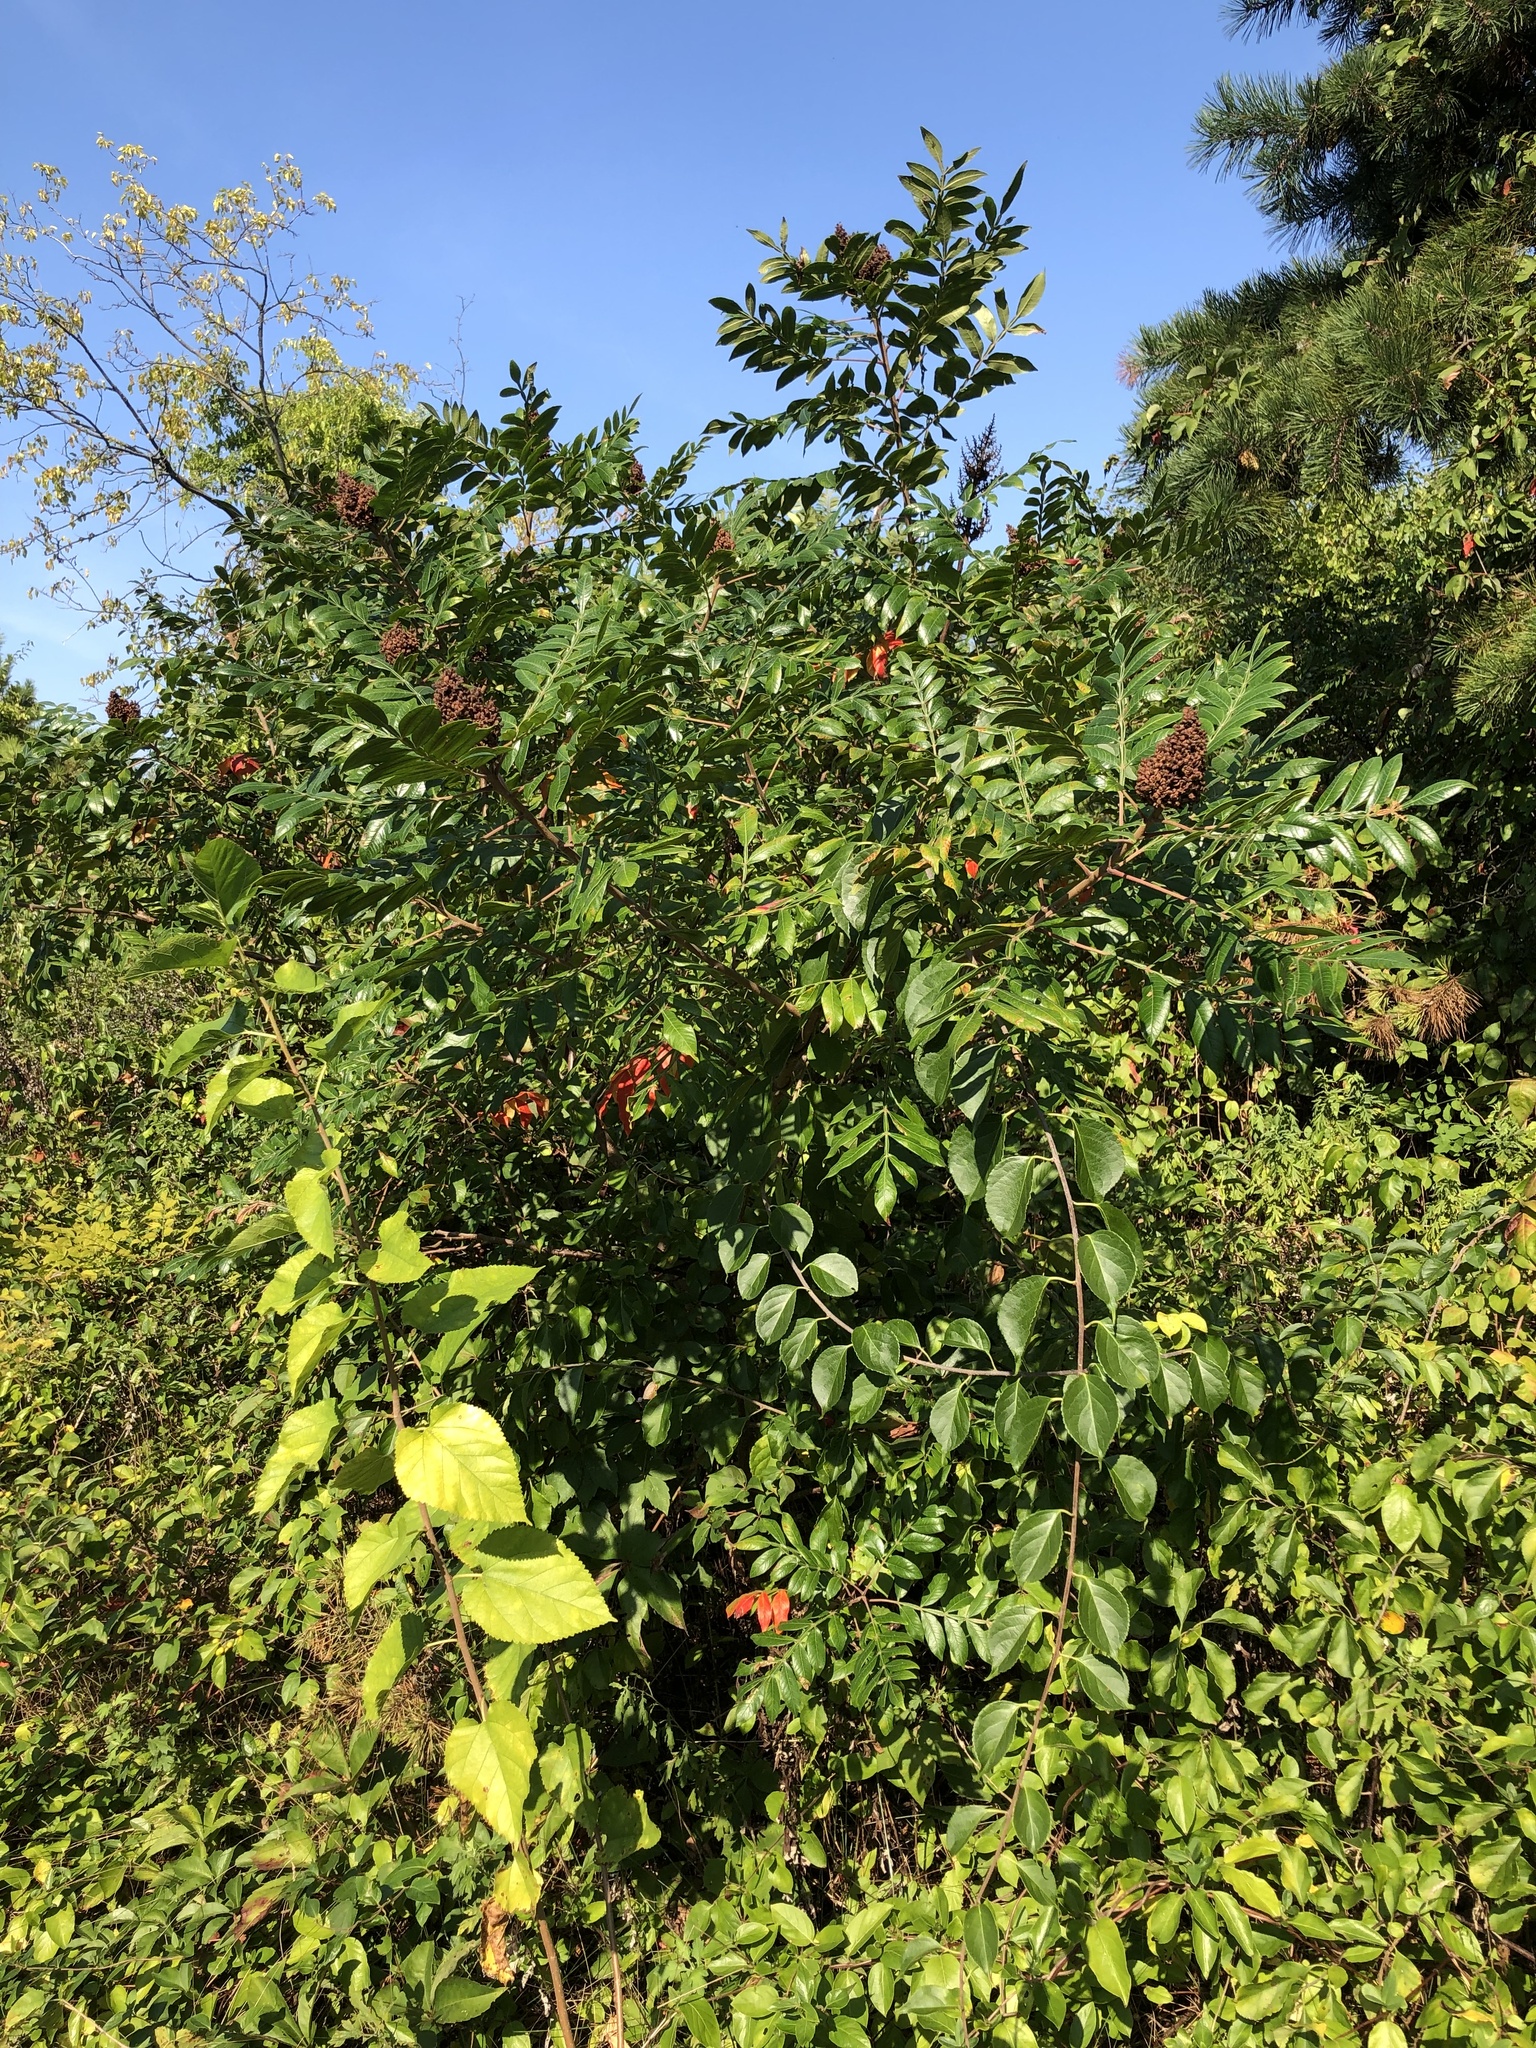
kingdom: Plantae
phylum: Tracheophyta
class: Magnoliopsida
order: Sapindales
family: Anacardiaceae
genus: Rhus
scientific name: Rhus copallina
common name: Shining sumac
